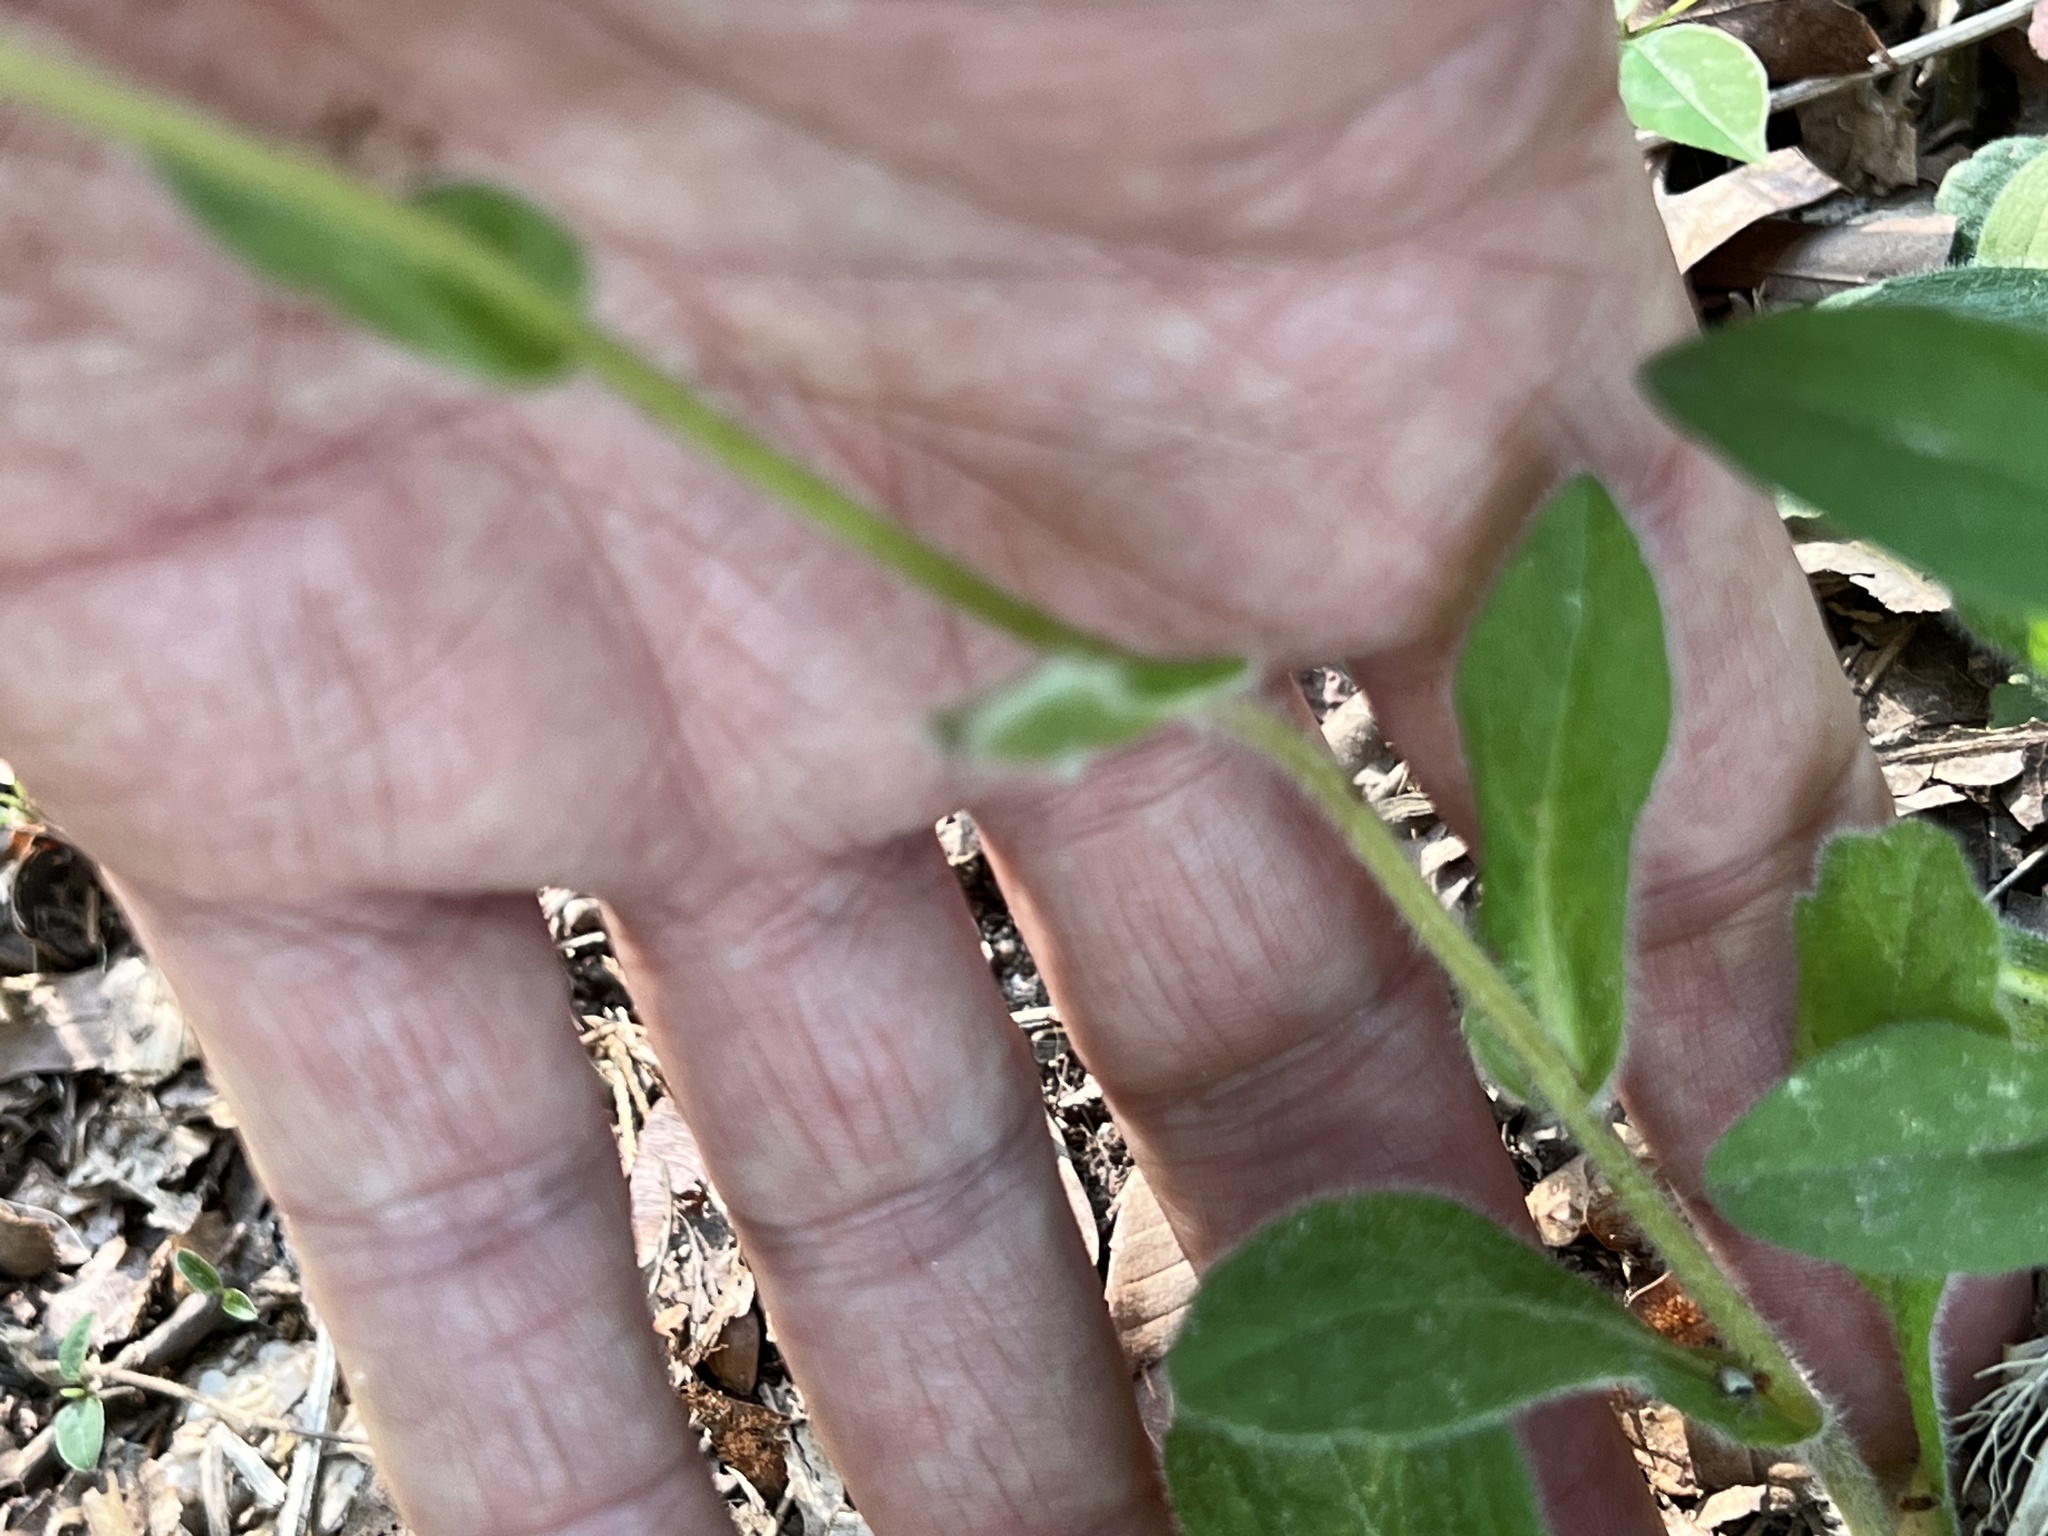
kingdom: Plantae
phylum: Tracheophyta
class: Magnoliopsida
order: Asterales
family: Asteraceae
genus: Erigeron
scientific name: Erigeron pulchellus
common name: Hairy fleabane
